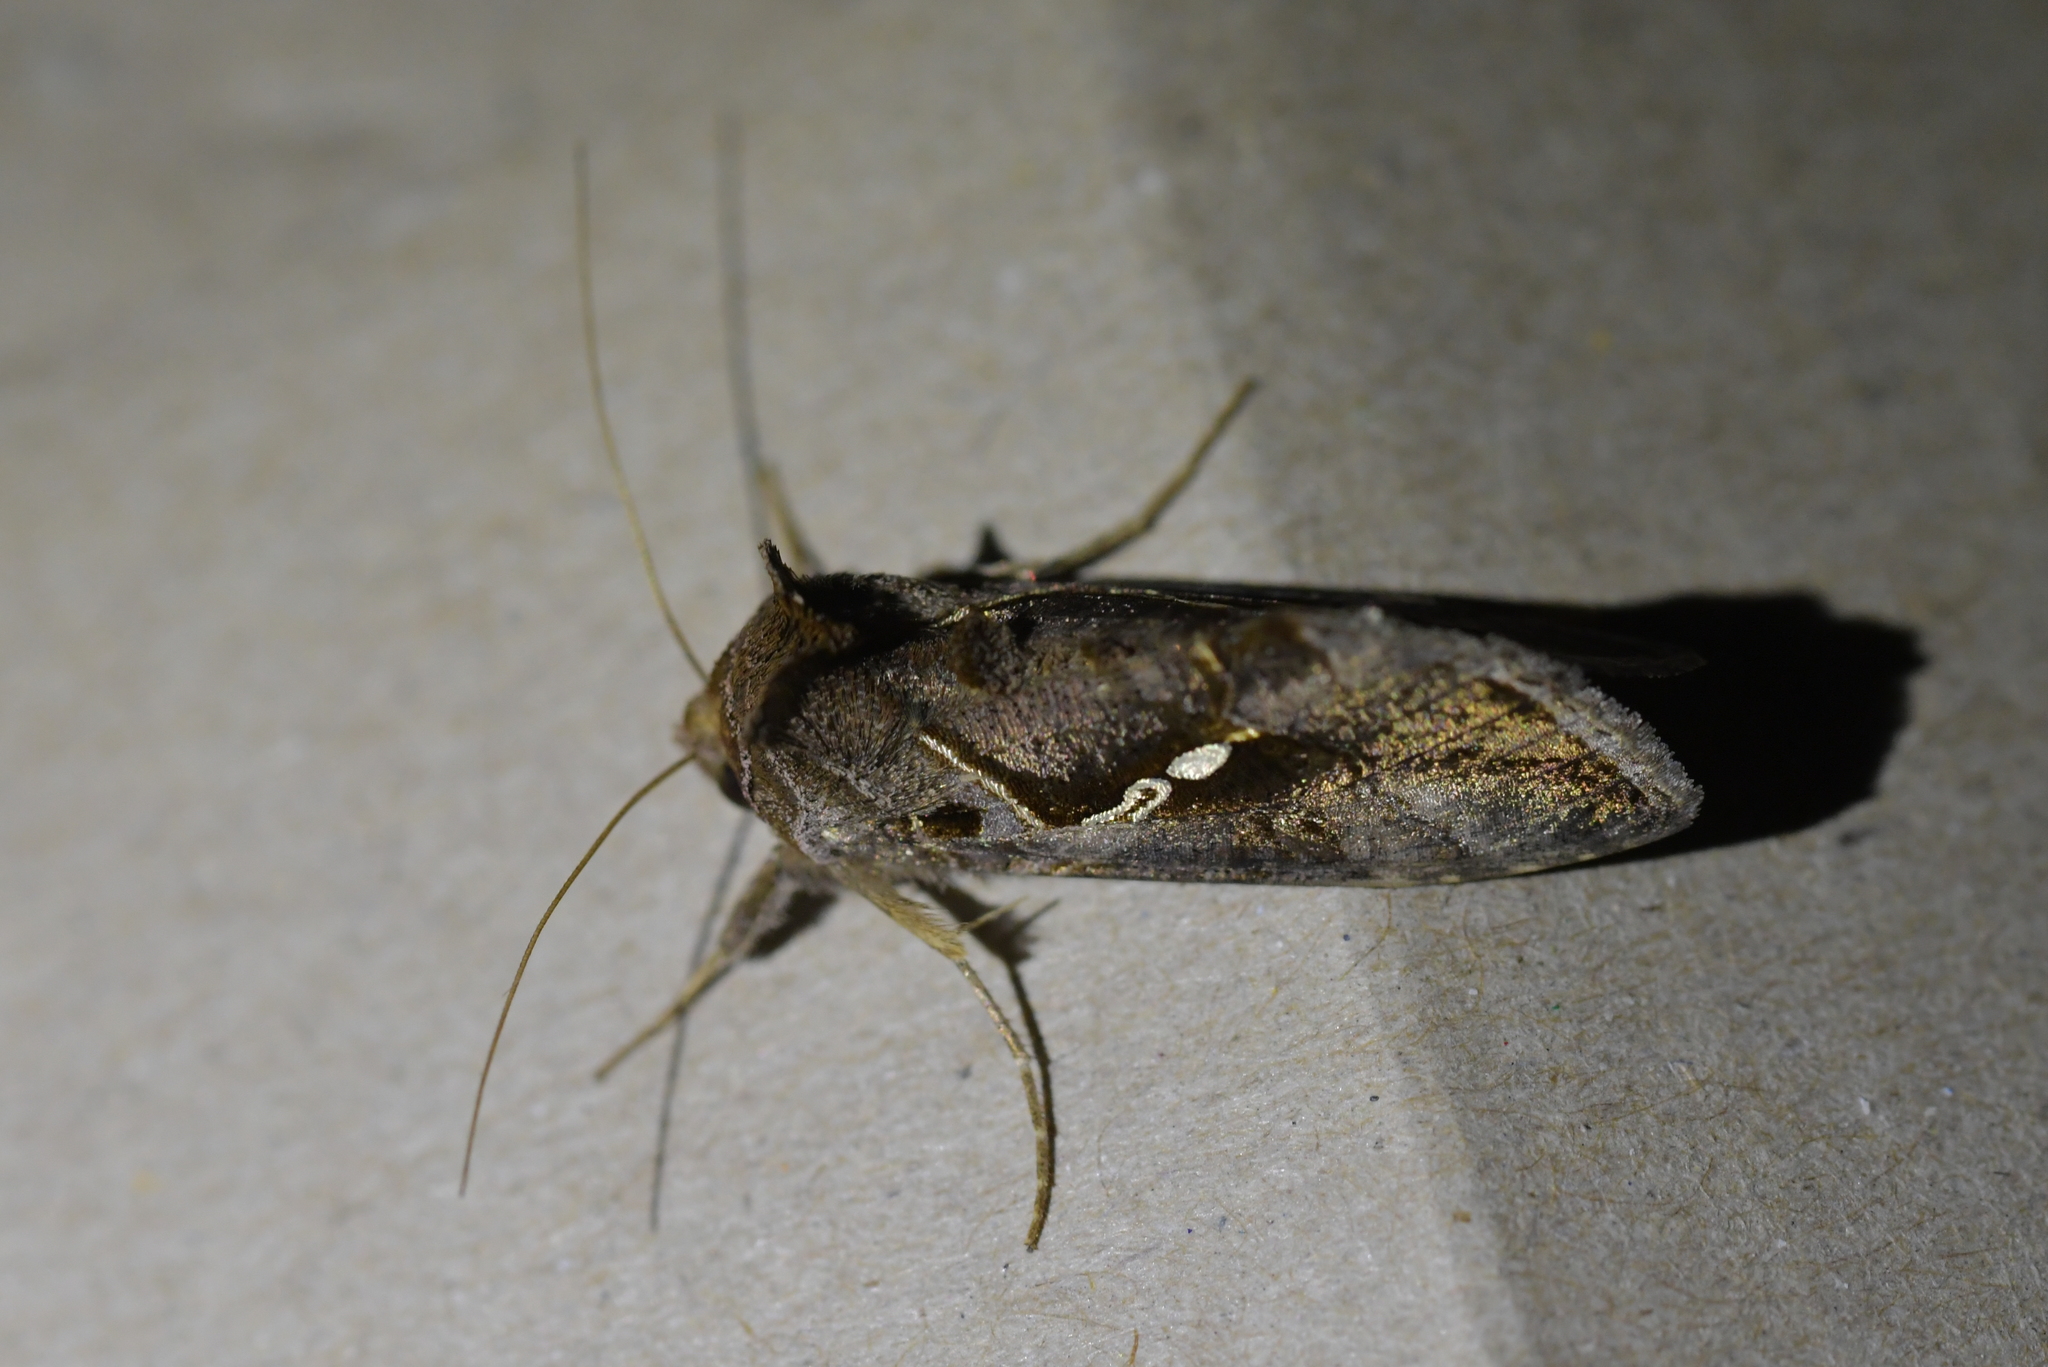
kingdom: Animalia
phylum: Arthropoda
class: Insecta
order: Lepidoptera
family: Noctuidae
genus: Chrysodeixis
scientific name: Chrysodeixis eriosoma
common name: Green garden looper
